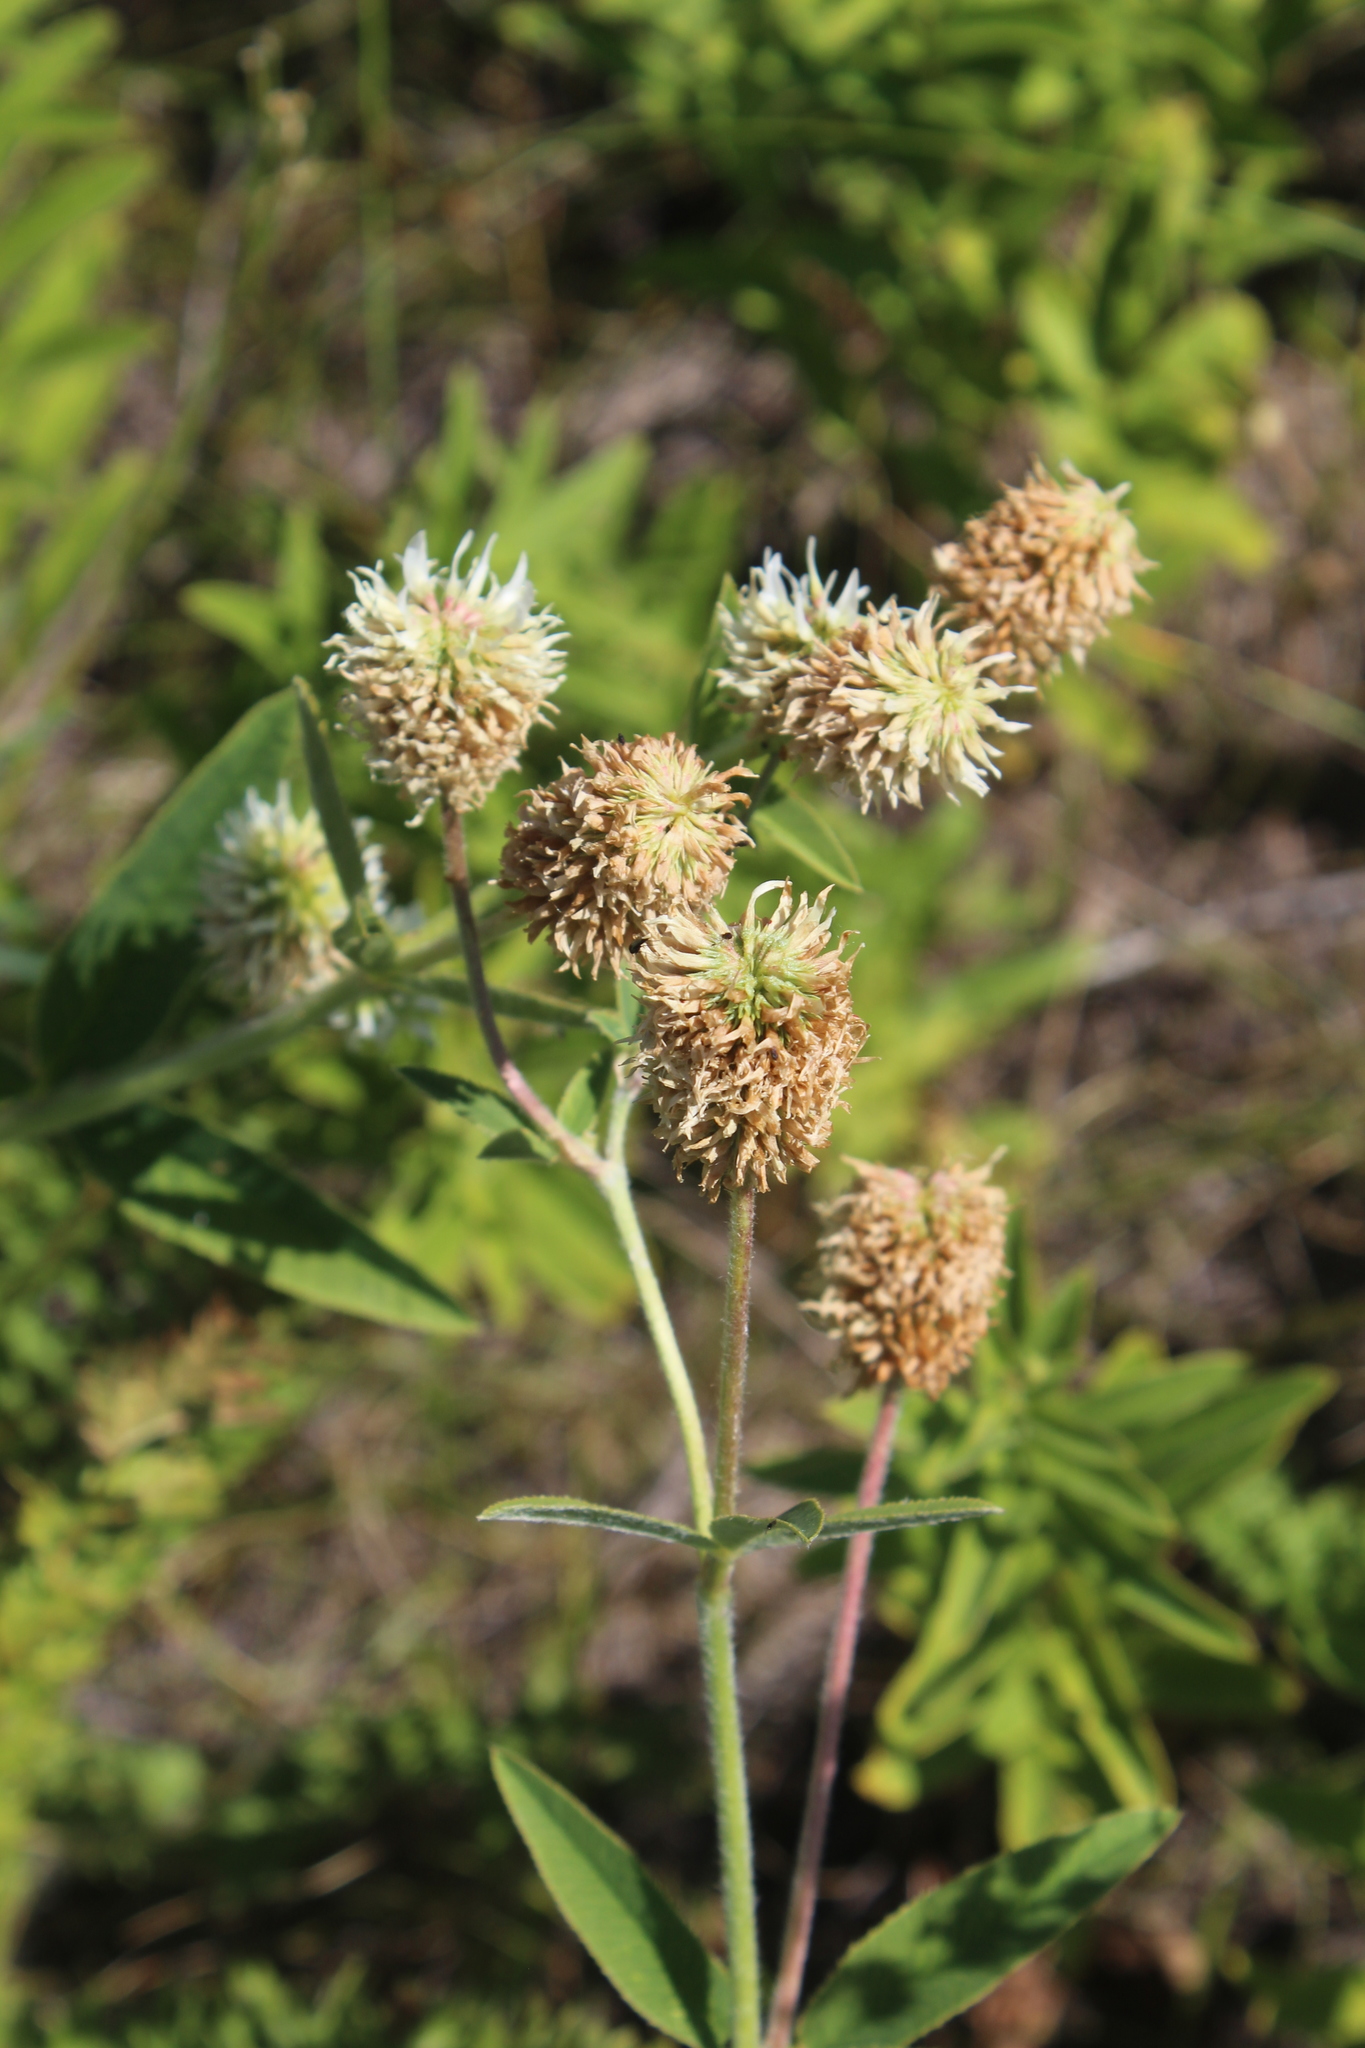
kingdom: Plantae
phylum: Tracheophyta
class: Magnoliopsida
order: Fabales
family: Fabaceae
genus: Trifolium
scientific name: Trifolium montanum
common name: Mountain clover
